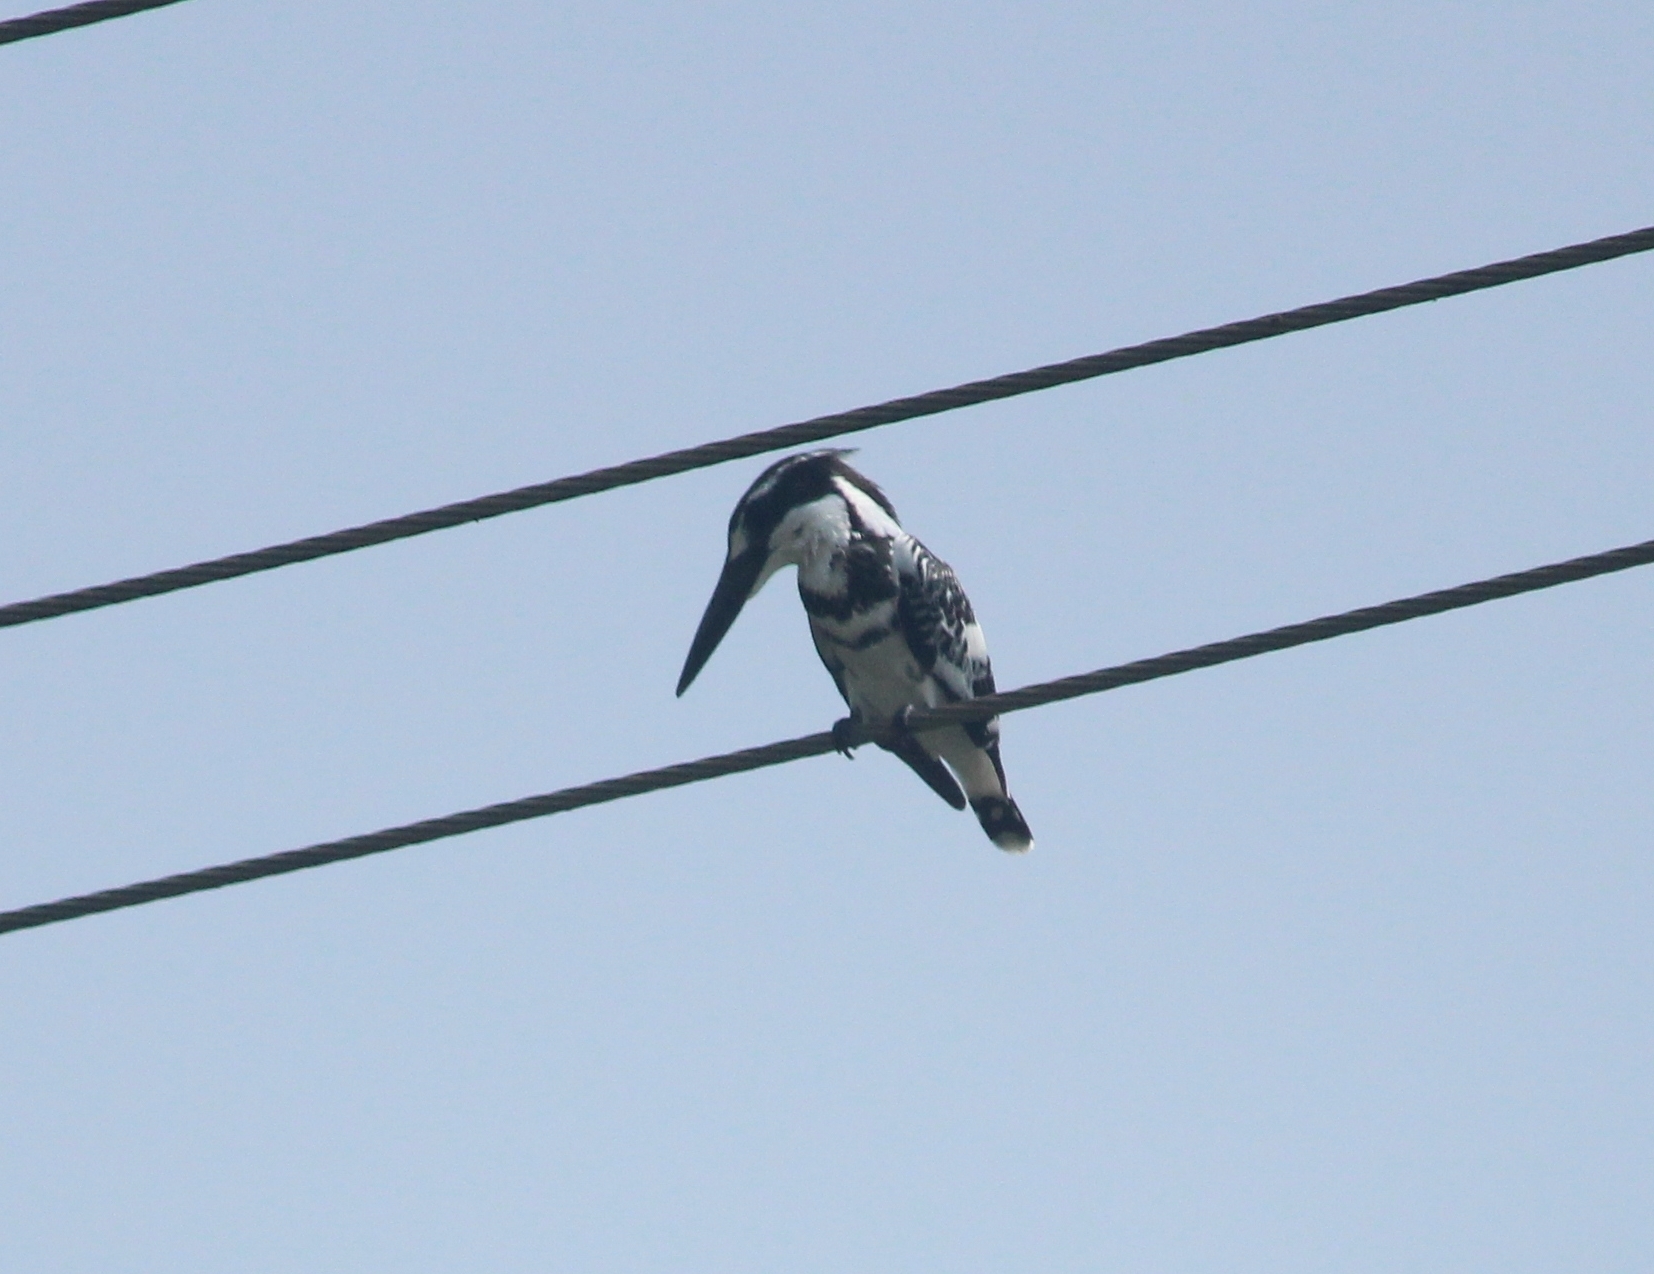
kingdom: Animalia
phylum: Chordata
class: Aves
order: Coraciiformes
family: Alcedinidae
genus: Ceryle
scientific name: Ceryle rudis
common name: Pied kingfisher
